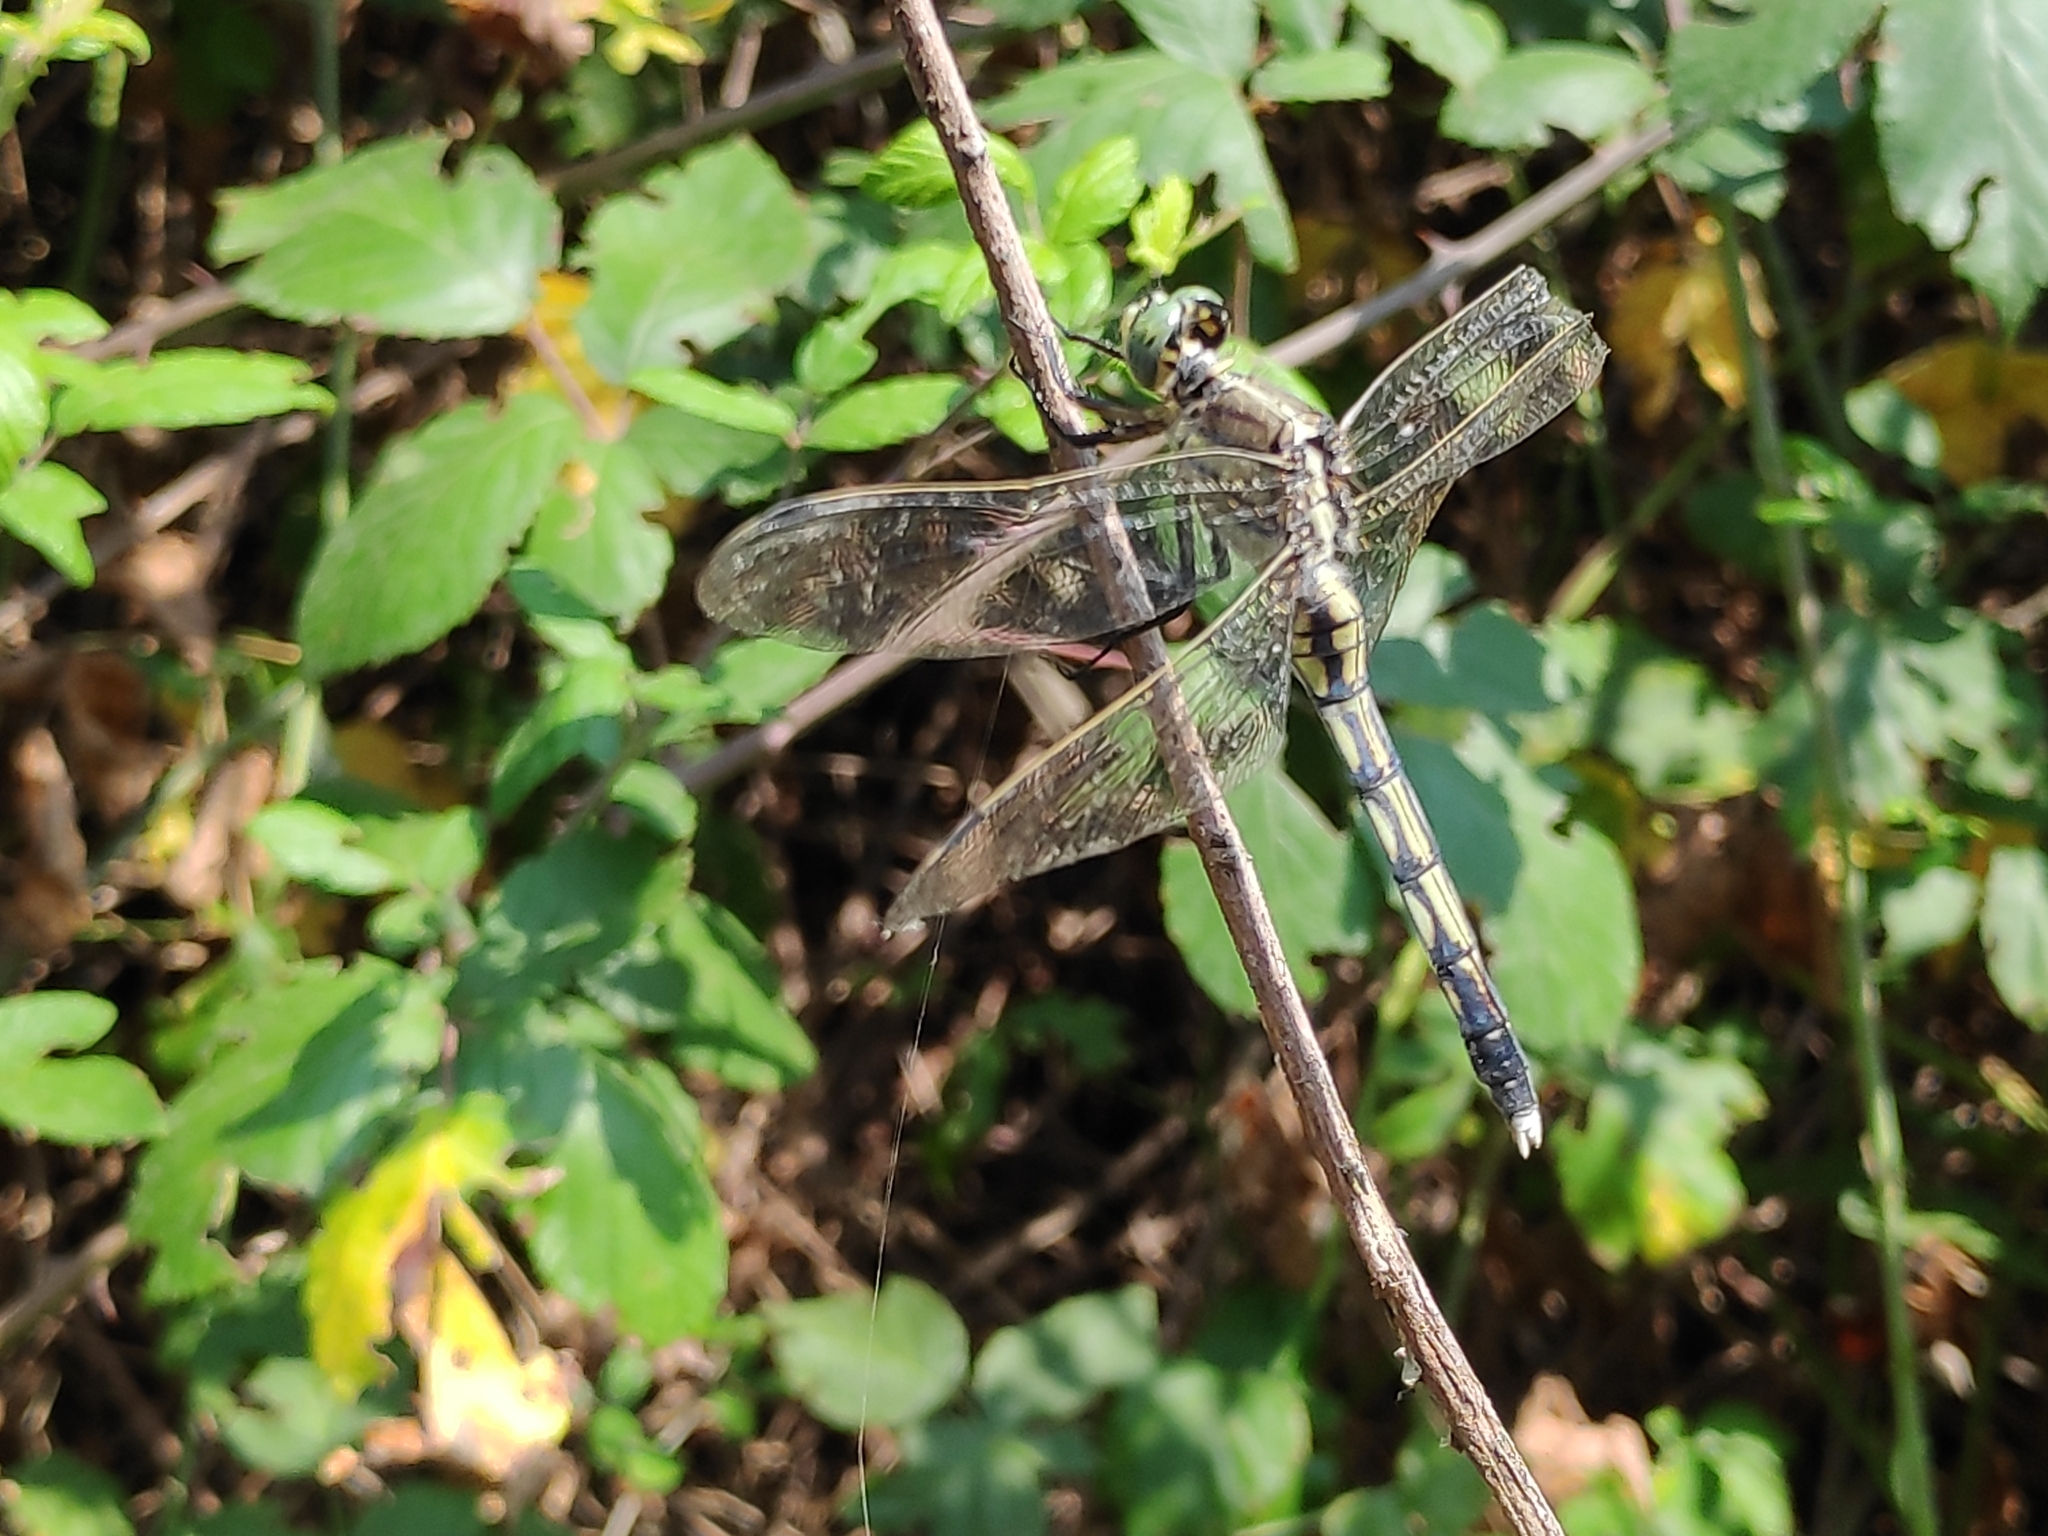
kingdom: Animalia
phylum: Arthropoda
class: Insecta
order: Odonata
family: Libellulidae
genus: Orthetrum
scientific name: Orthetrum albistylum
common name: White-tailed skimmer
